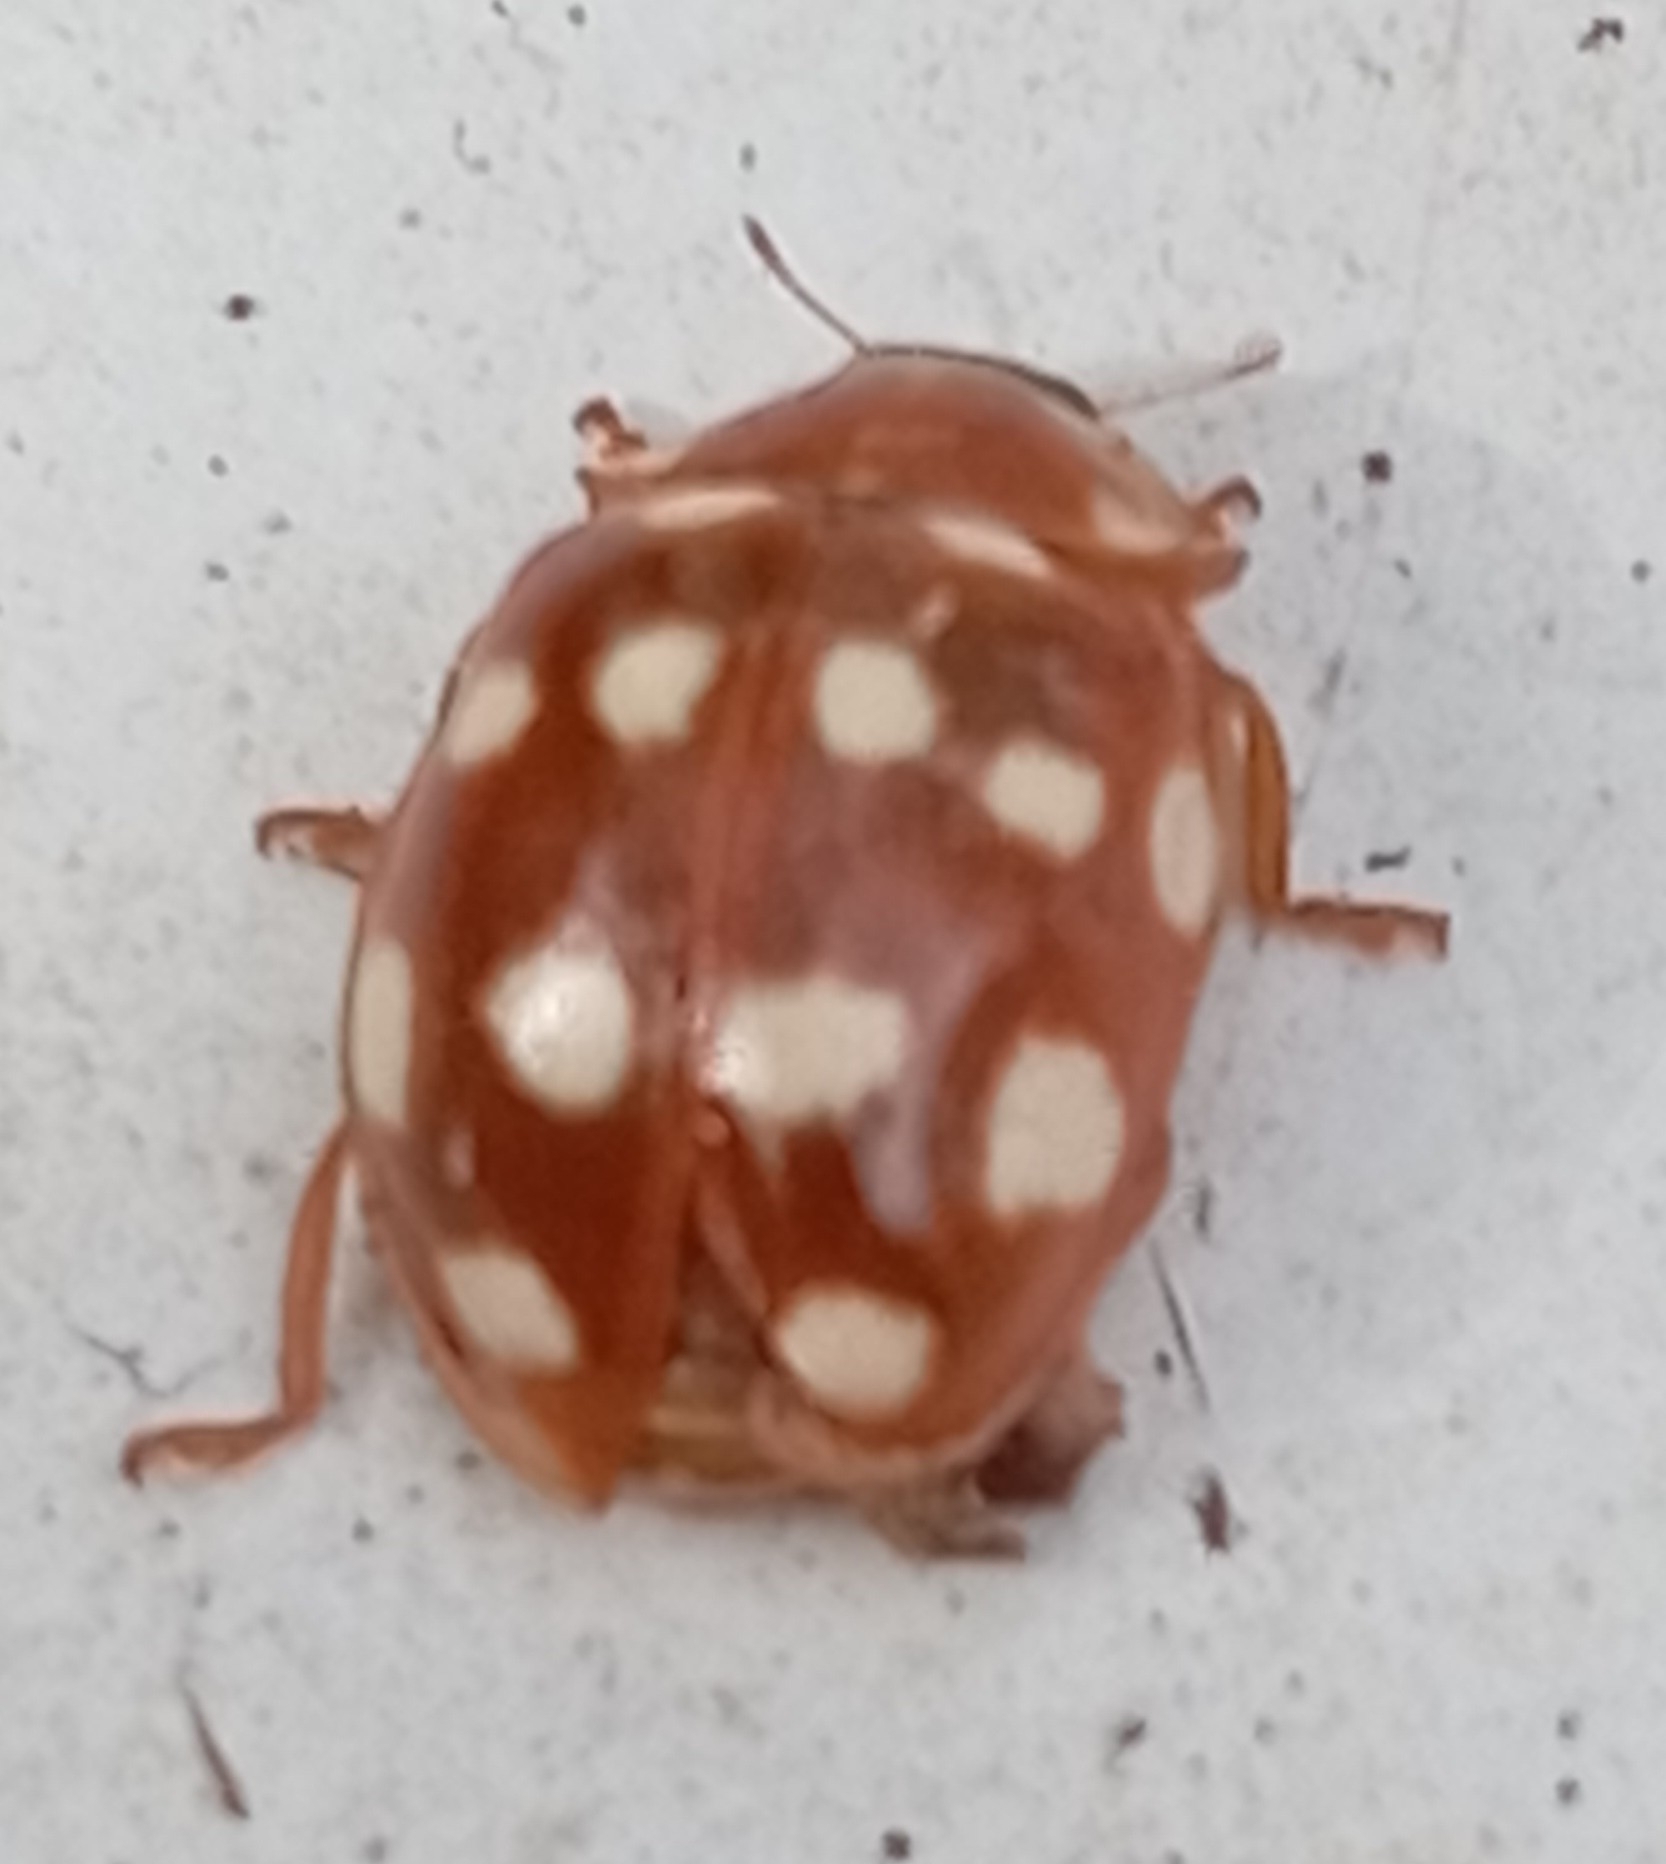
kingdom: Animalia
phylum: Arthropoda
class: Insecta
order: Coleoptera
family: Coccinellidae
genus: Calvia
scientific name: Calvia quatuordecimguttata
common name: Cream-spot ladybird
